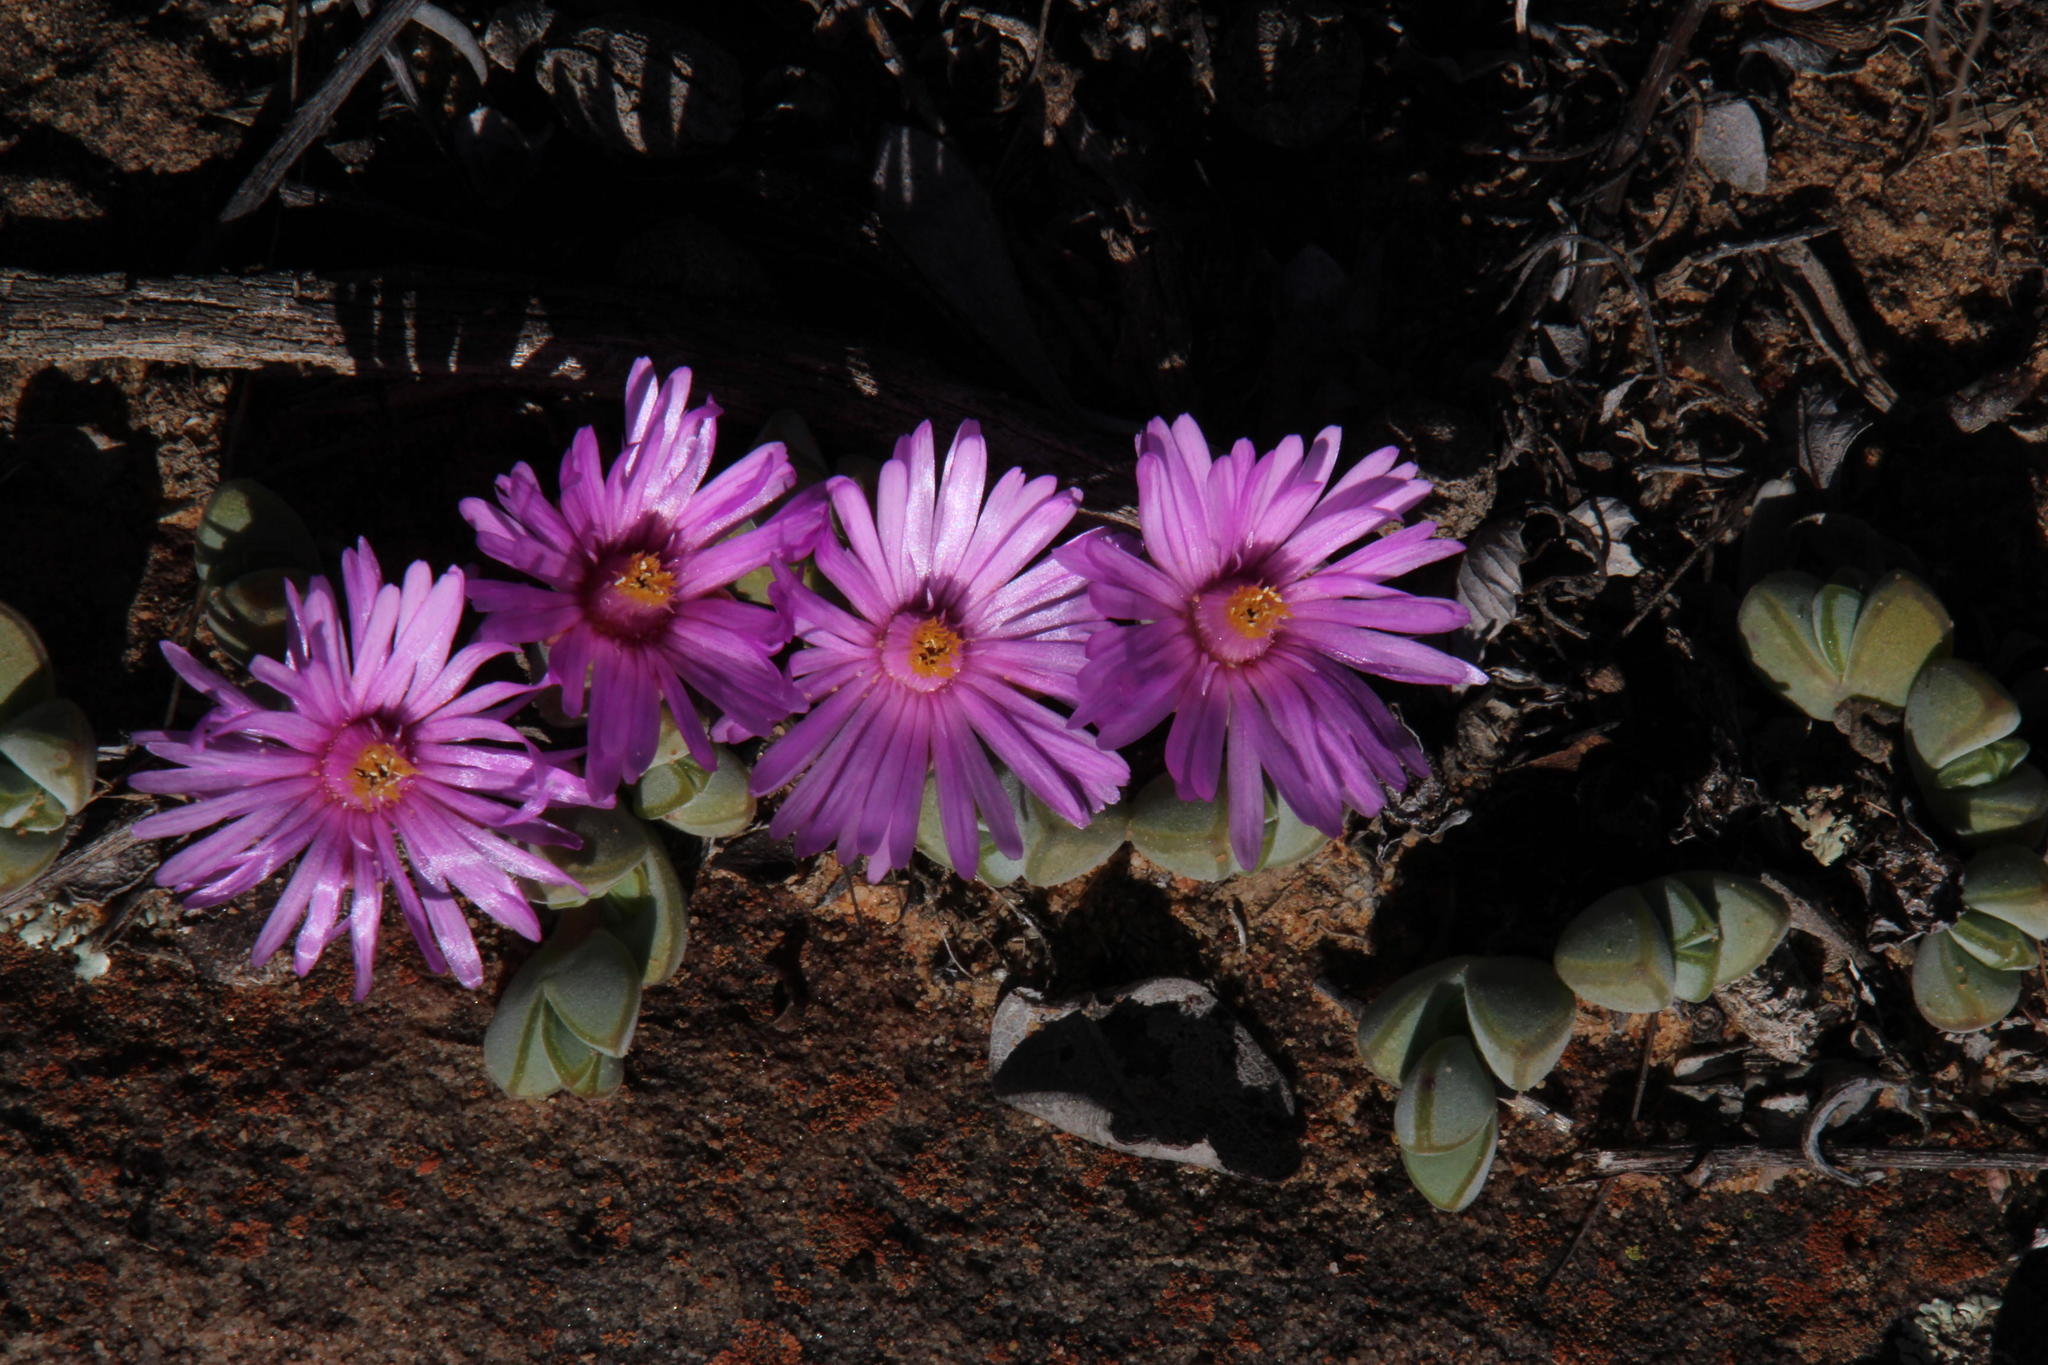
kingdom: Plantae
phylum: Tracheophyta
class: Magnoliopsida
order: Caryophyllales
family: Aizoaceae
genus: Braunsia
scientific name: Braunsia maximiliani
